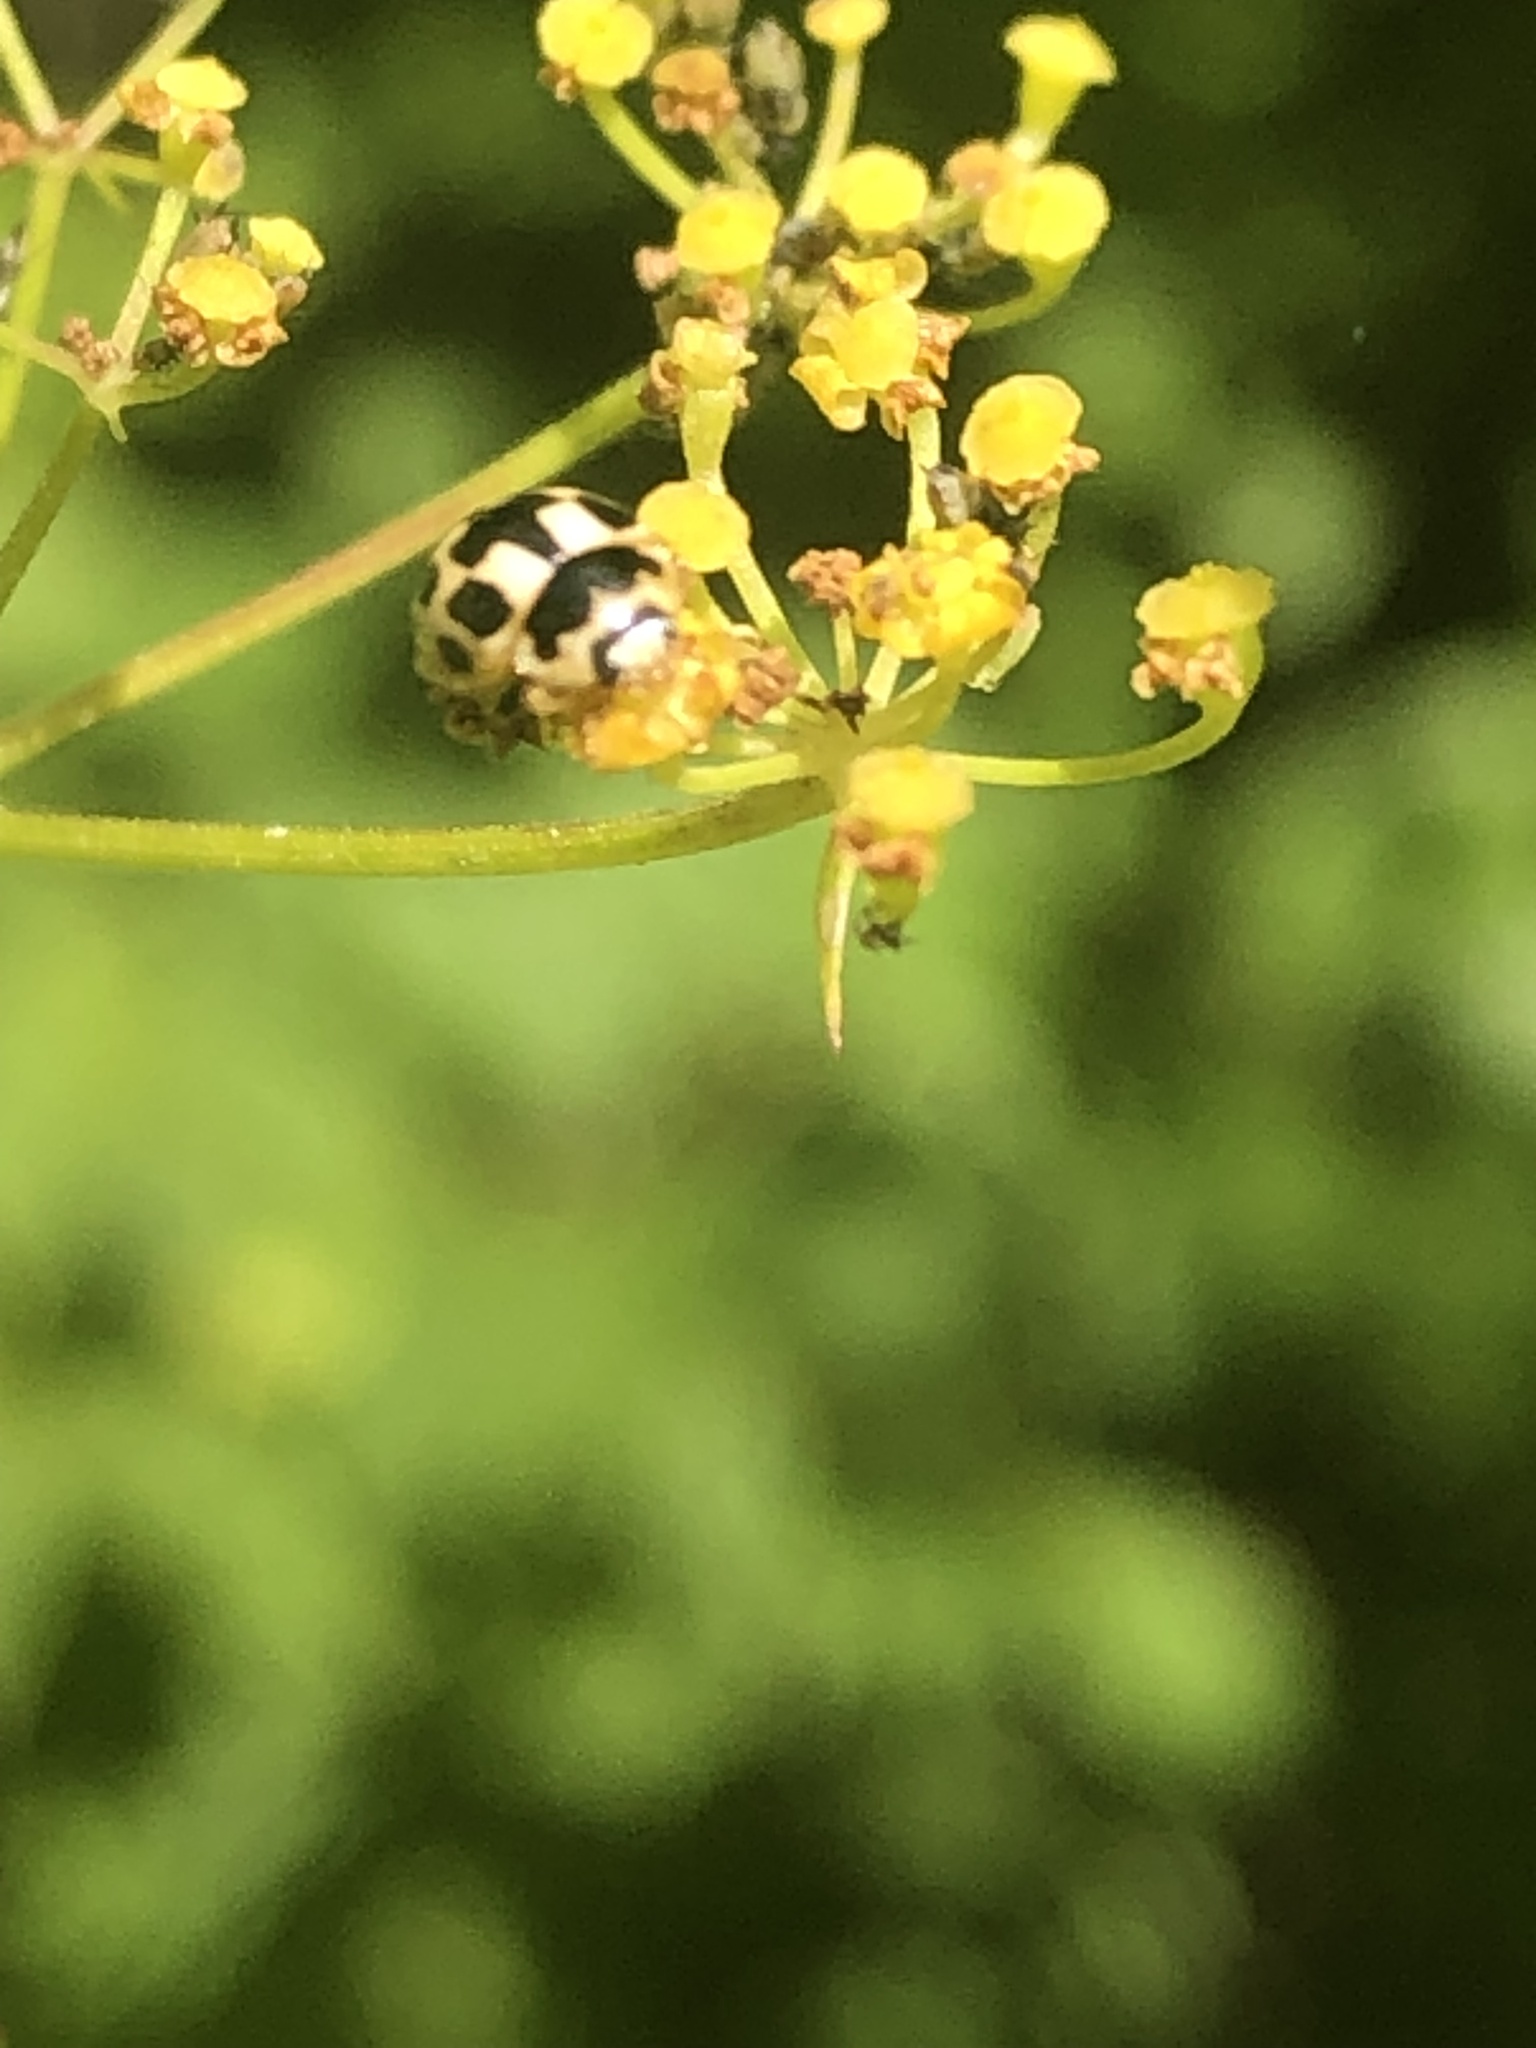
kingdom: Animalia
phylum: Arthropoda
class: Insecta
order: Coleoptera
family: Coccinellidae
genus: Propylaea
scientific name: Propylaea quatuordecimpunctata
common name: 14-spotted ladybird beetle
